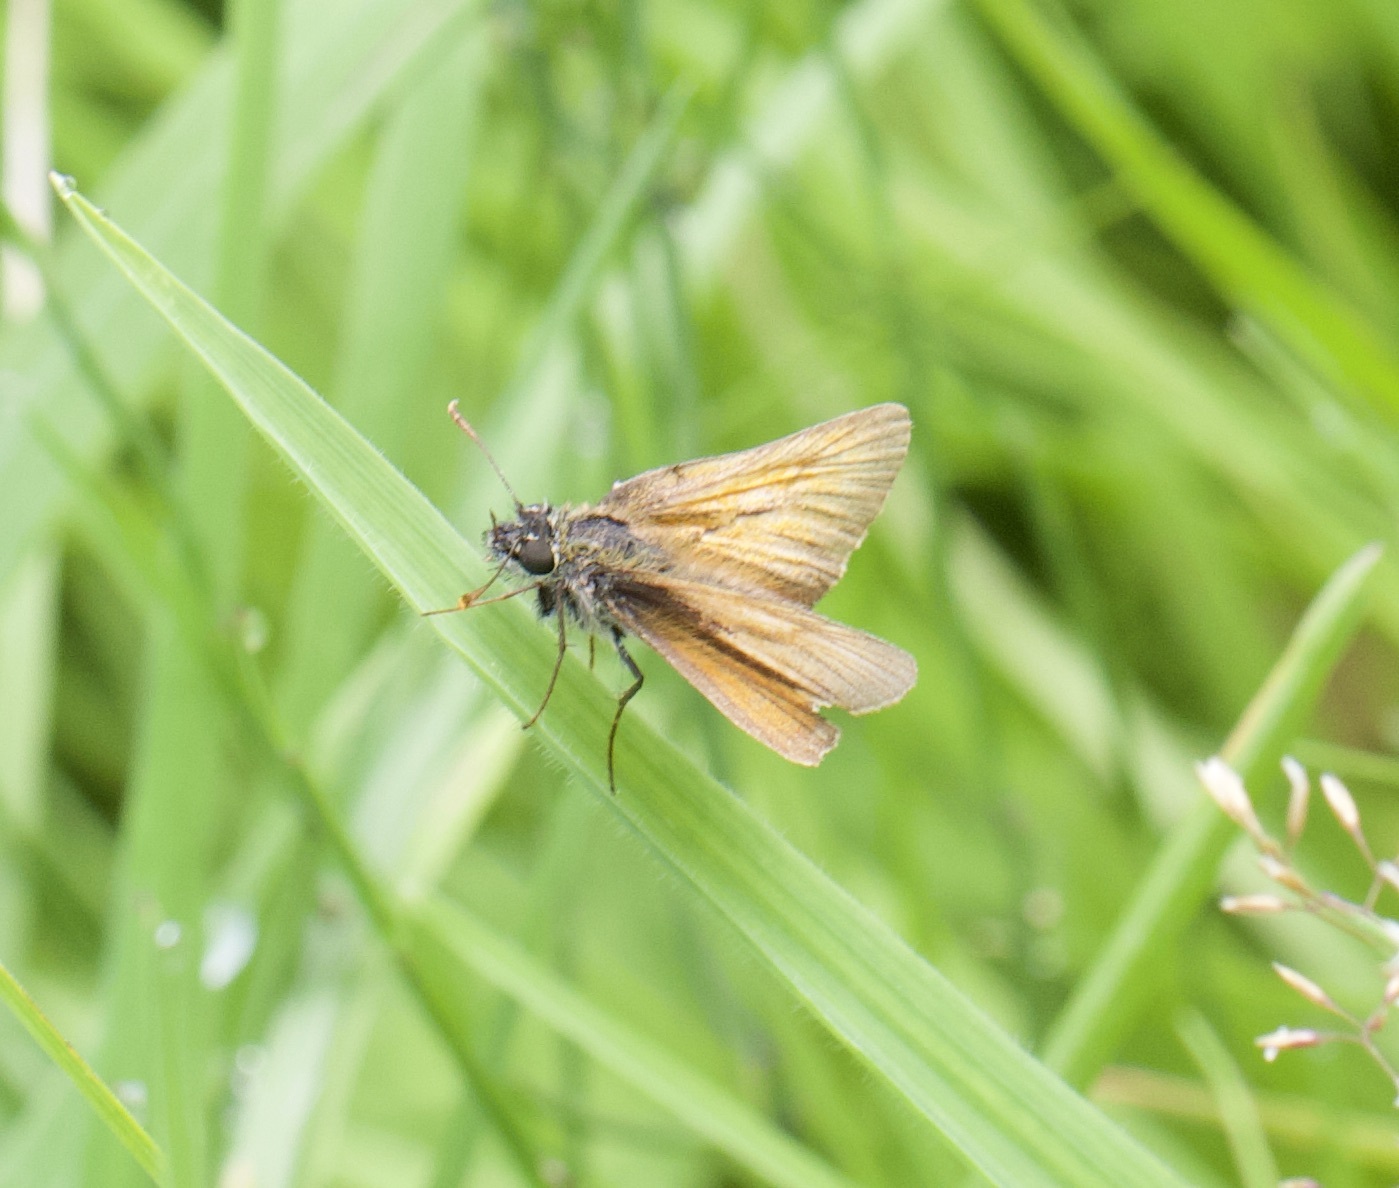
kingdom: Animalia
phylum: Arthropoda
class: Insecta
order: Lepidoptera
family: Hesperiidae
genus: Thymelicus
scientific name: Thymelicus sylvestris
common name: Small skipper
